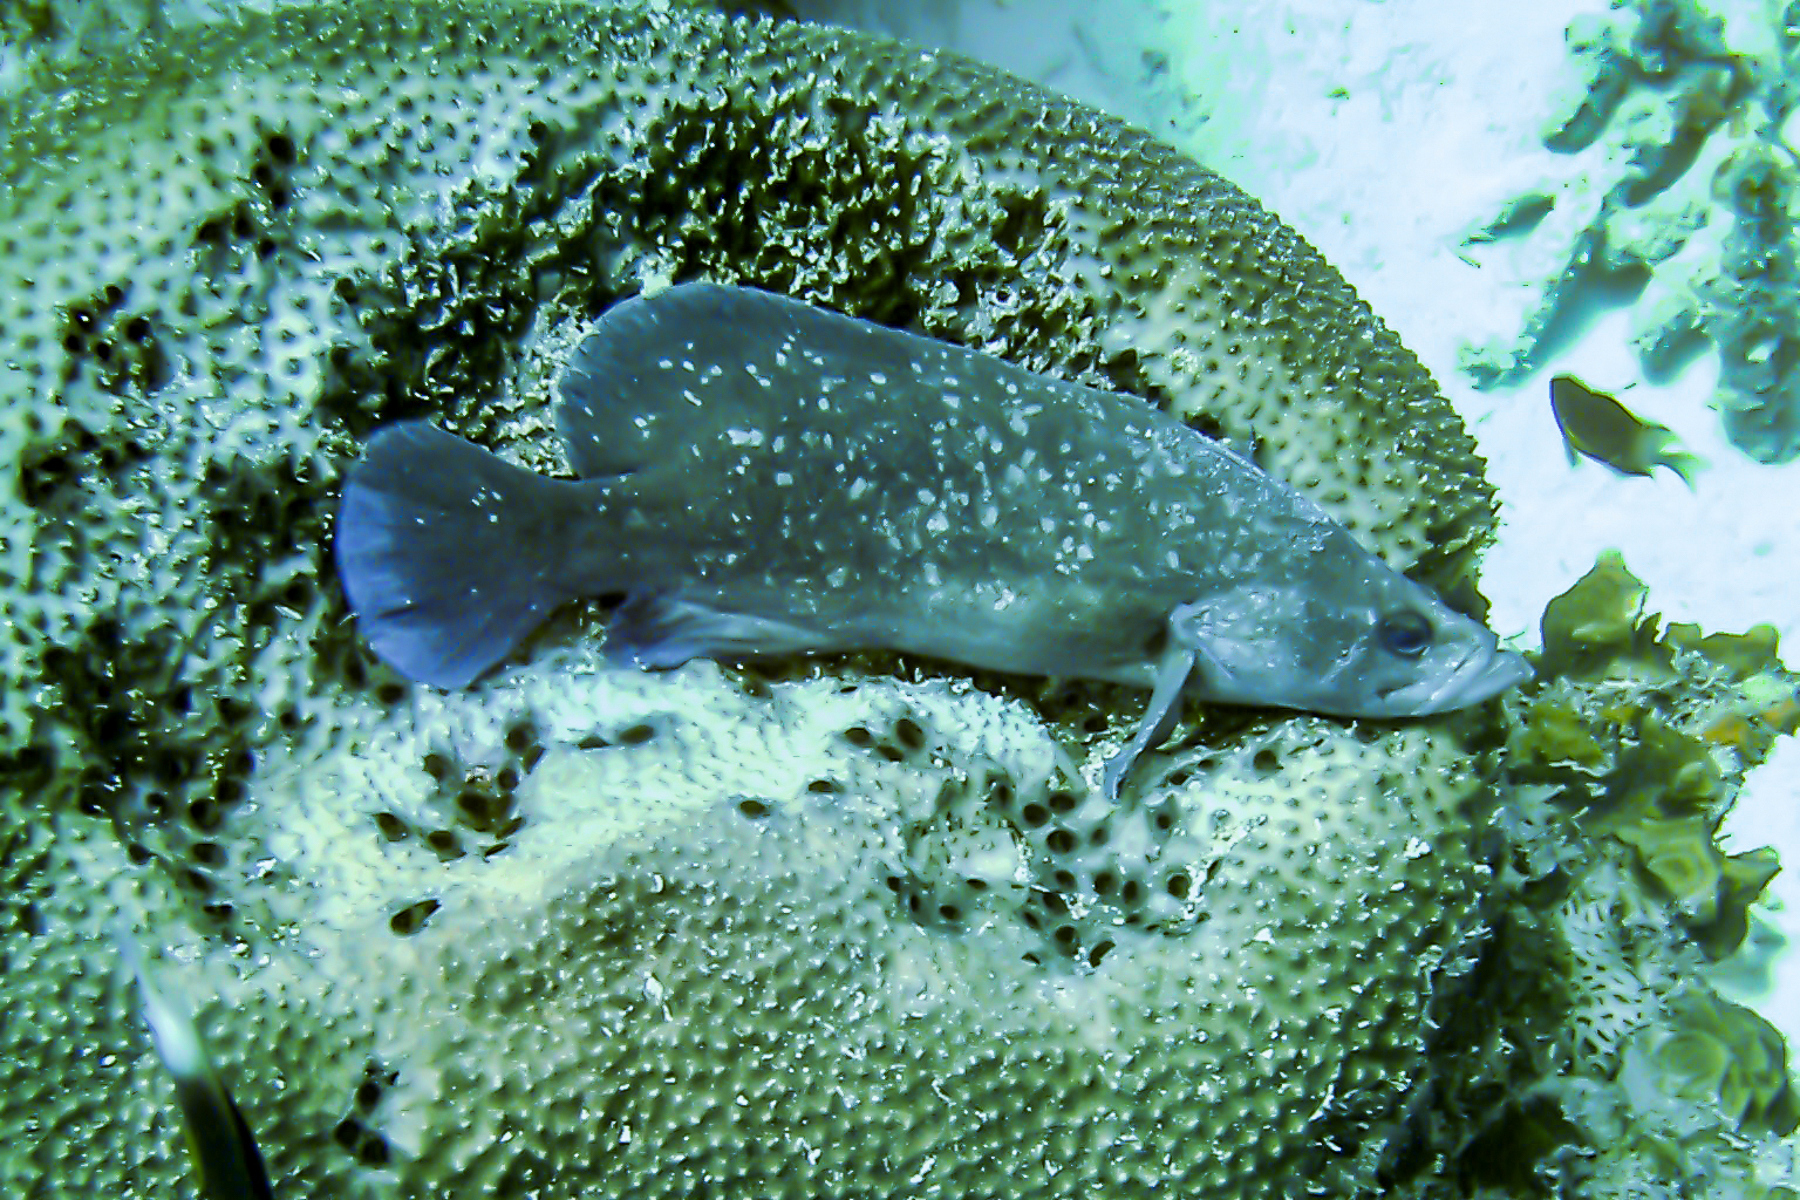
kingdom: Animalia
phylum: Chordata
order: Perciformes
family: Serranidae
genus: Rypticus
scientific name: Rypticus saponaceus
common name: Soapfish
